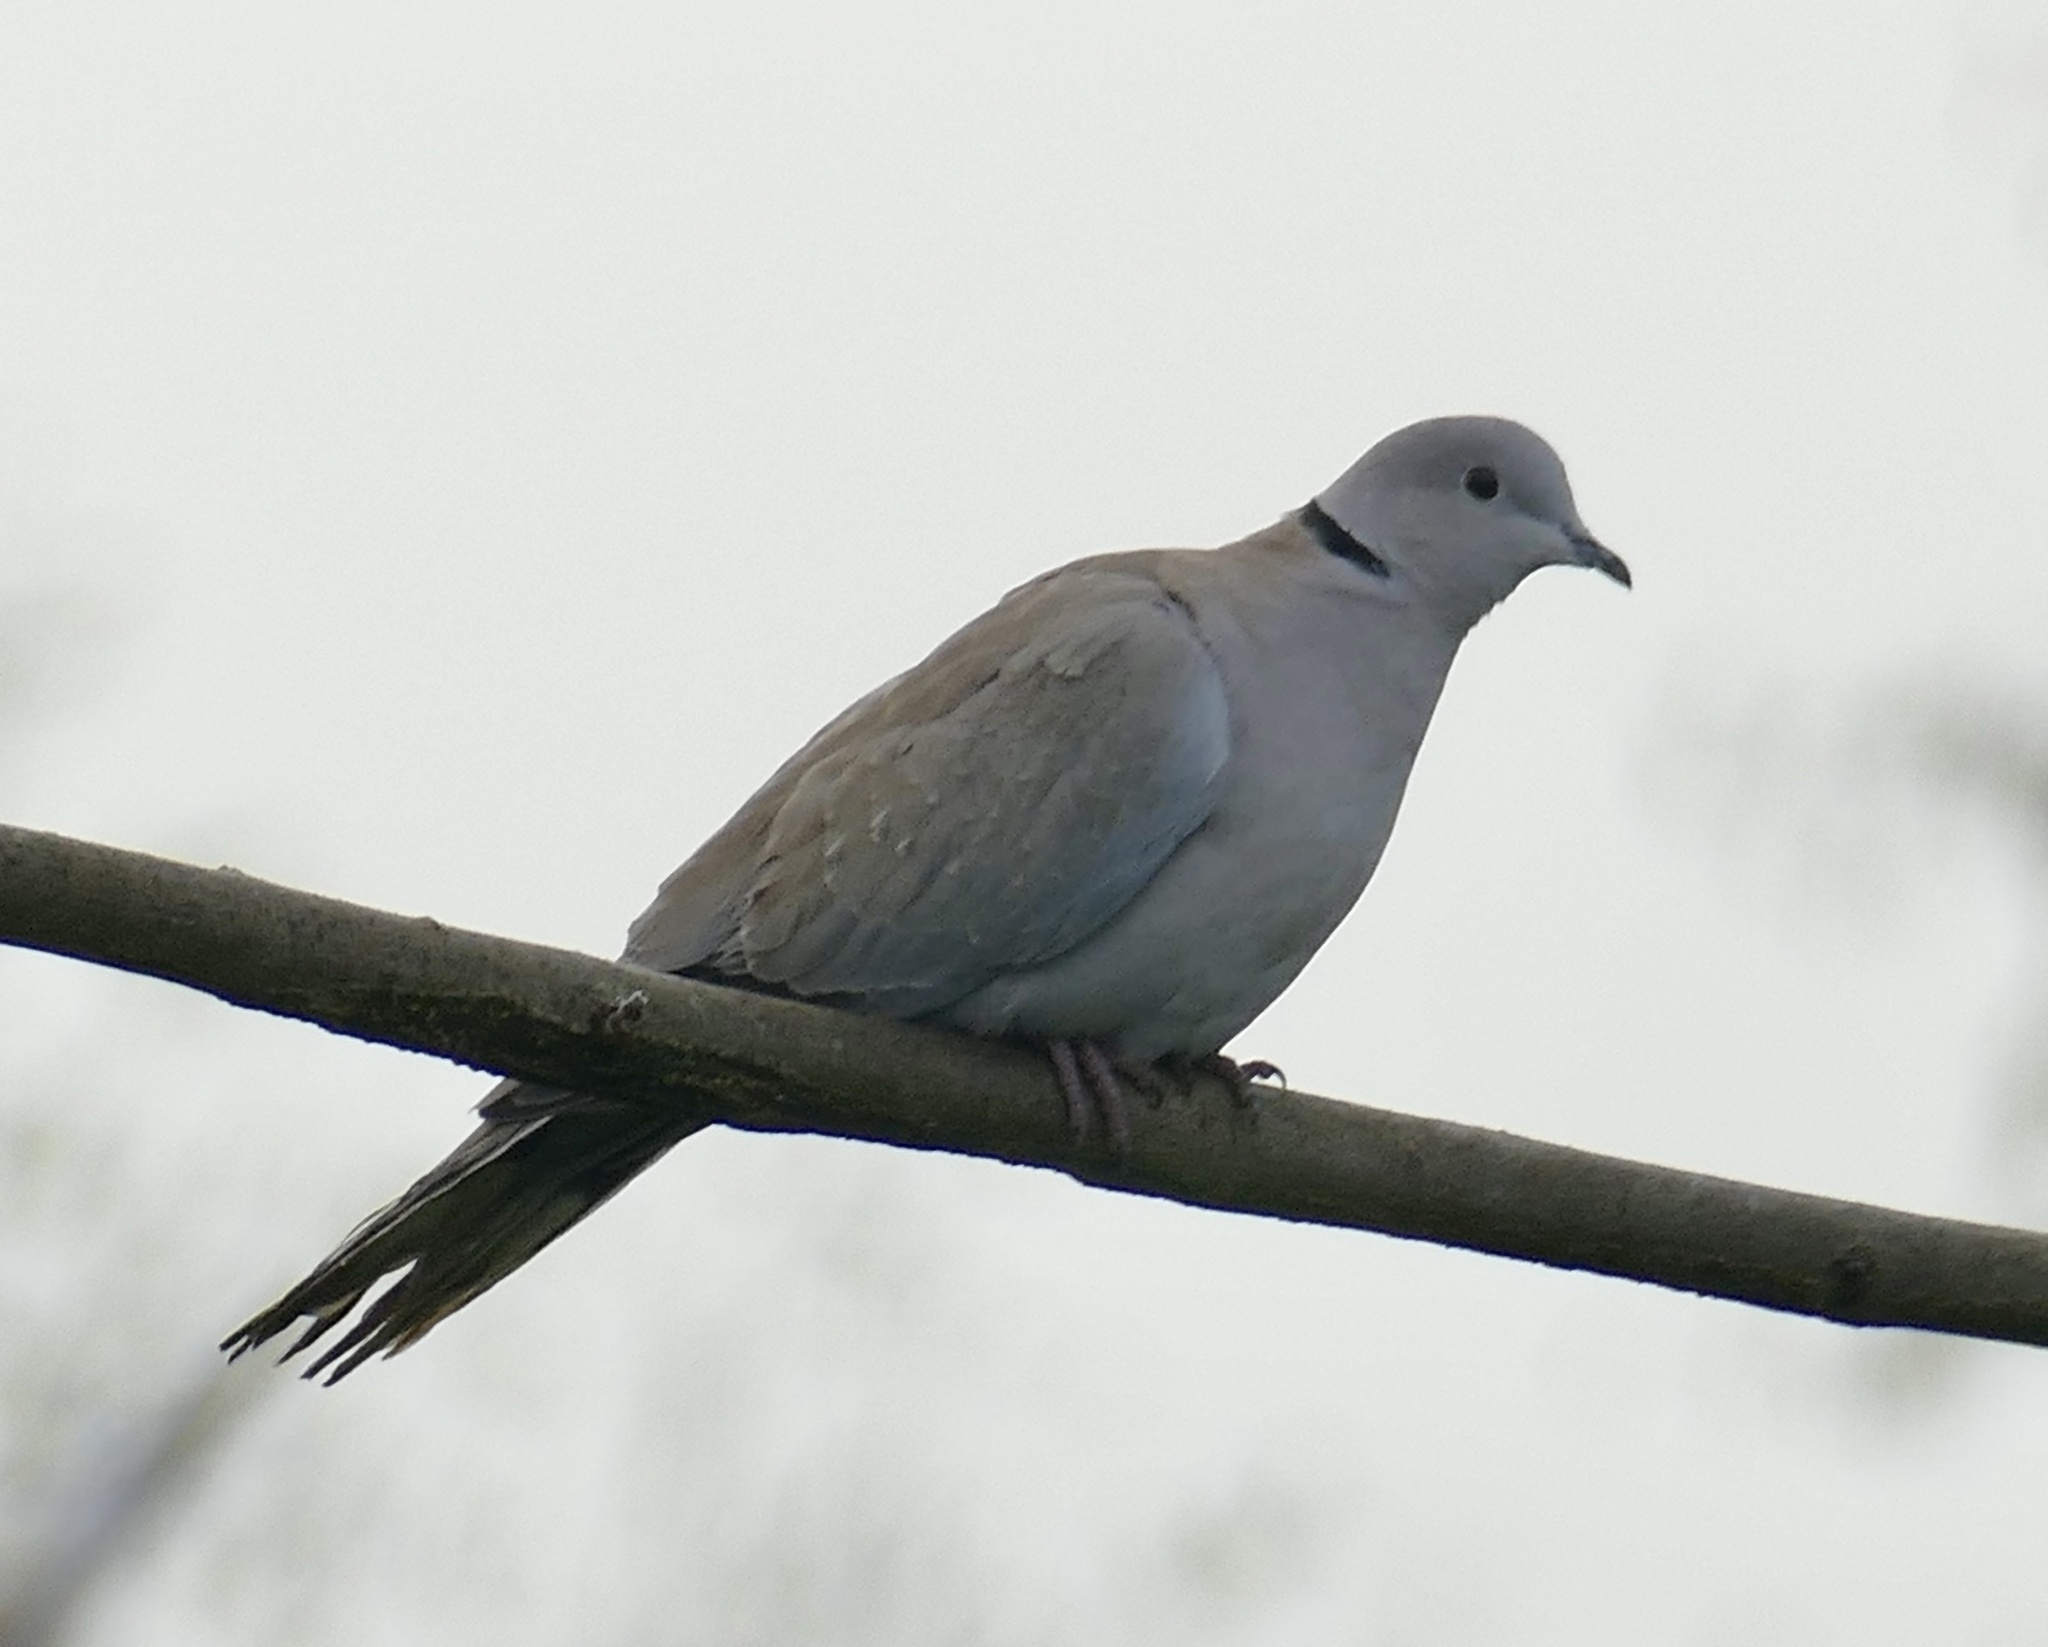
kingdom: Animalia
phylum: Chordata
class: Aves
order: Columbiformes
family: Columbidae
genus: Streptopelia
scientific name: Streptopelia decaocto
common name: Eurasian collared dove
